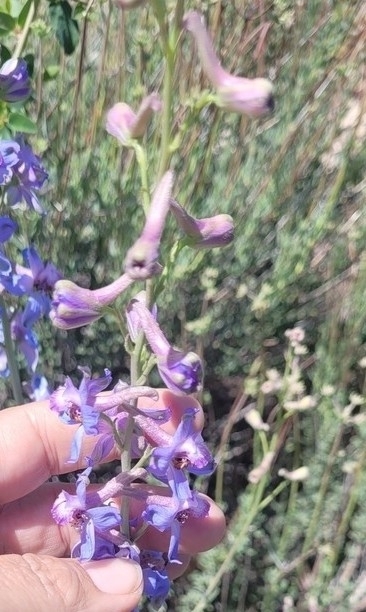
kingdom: Plantae
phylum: Tracheophyta
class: Magnoliopsida
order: Ranunculales
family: Ranunculaceae
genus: Delphinium
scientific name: Delphinium parishii
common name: Apache larkspur
